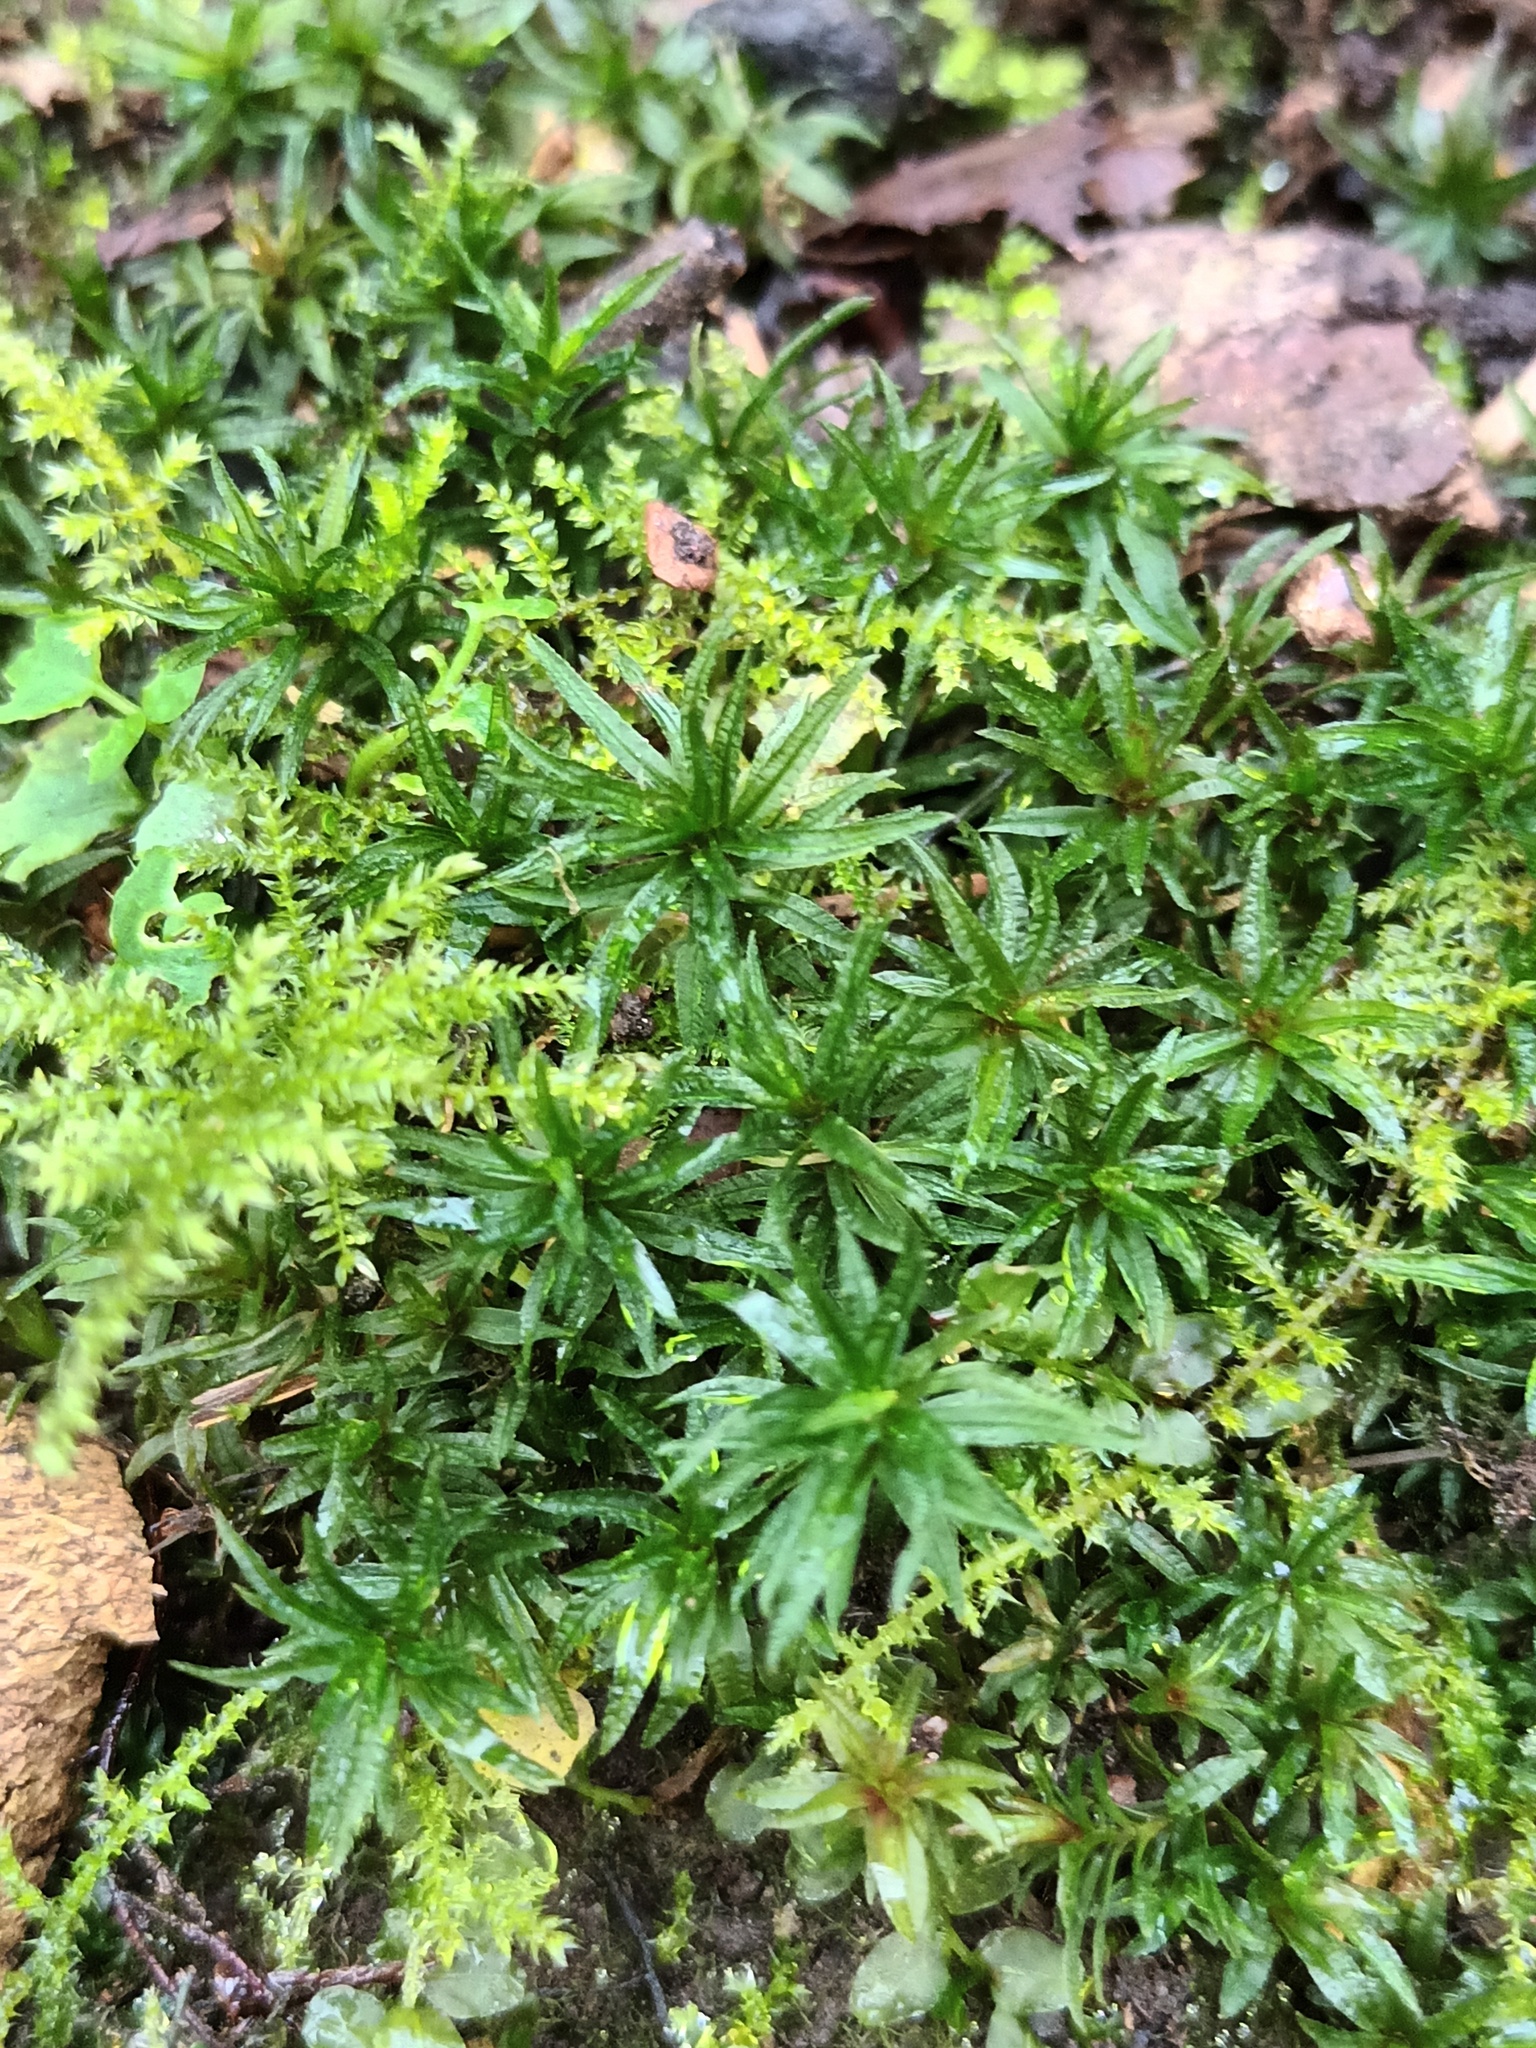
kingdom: Plantae
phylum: Bryophyta
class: Polytrichopsida
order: Polytrichales
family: Polytrichaceae
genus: Atrichum
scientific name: Atrichum undulatum
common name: Common smoothcap
